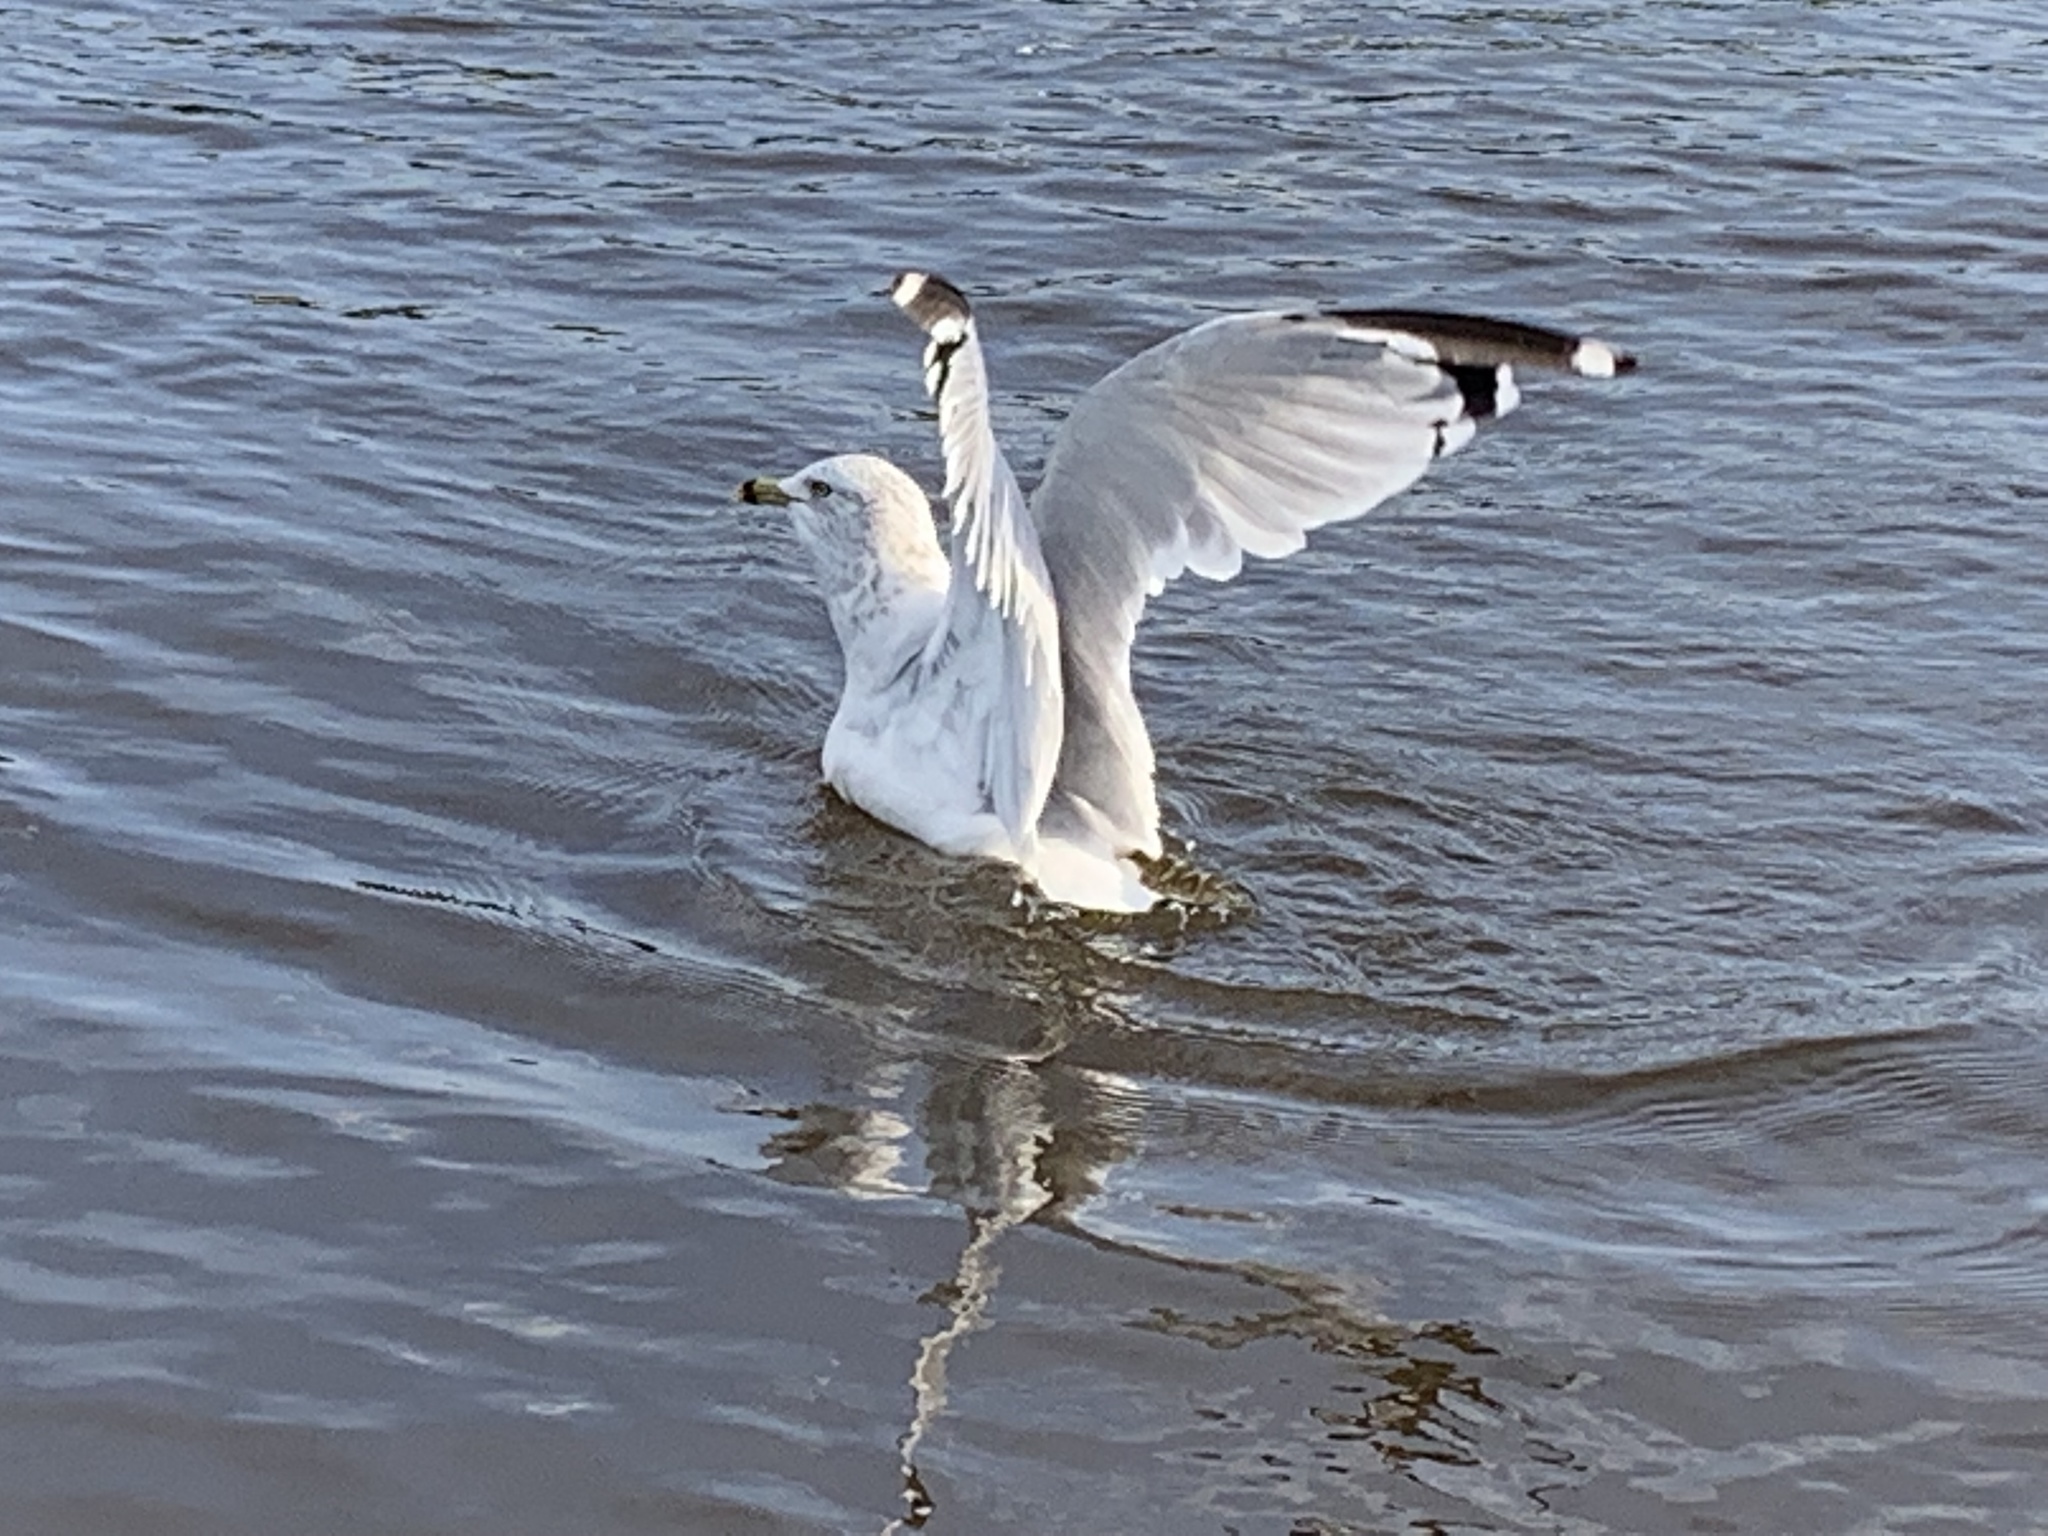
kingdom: Animalia
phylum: Chordata
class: Aves
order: Charadriiformes
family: Laridae
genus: Larus
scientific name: Larus delawarensis
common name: Ring-billed gull
